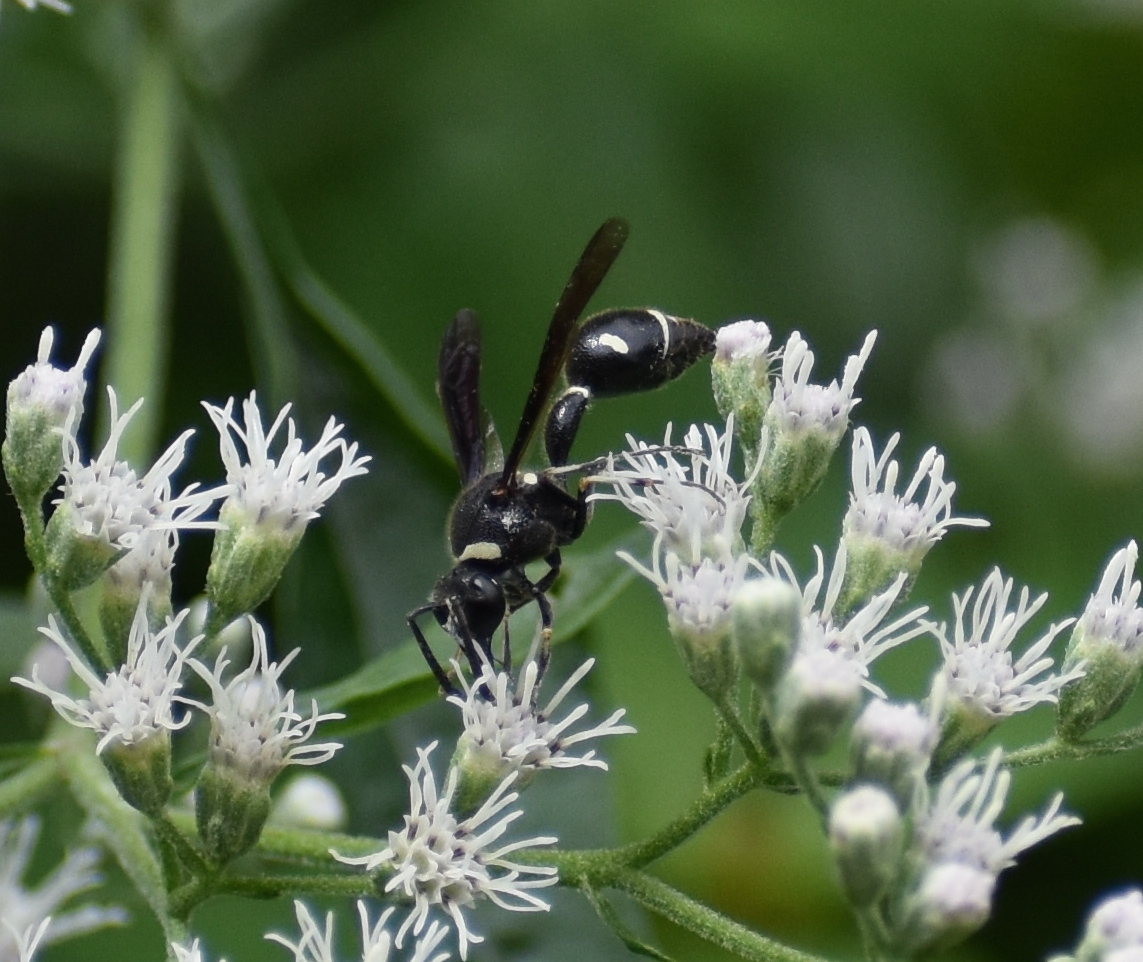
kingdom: Animalia
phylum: Arthropoda
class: Insecta
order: Hymenoptera
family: Vespidae
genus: Eumenes
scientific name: Eumenes fraternus
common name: Fraternal potter wasp
